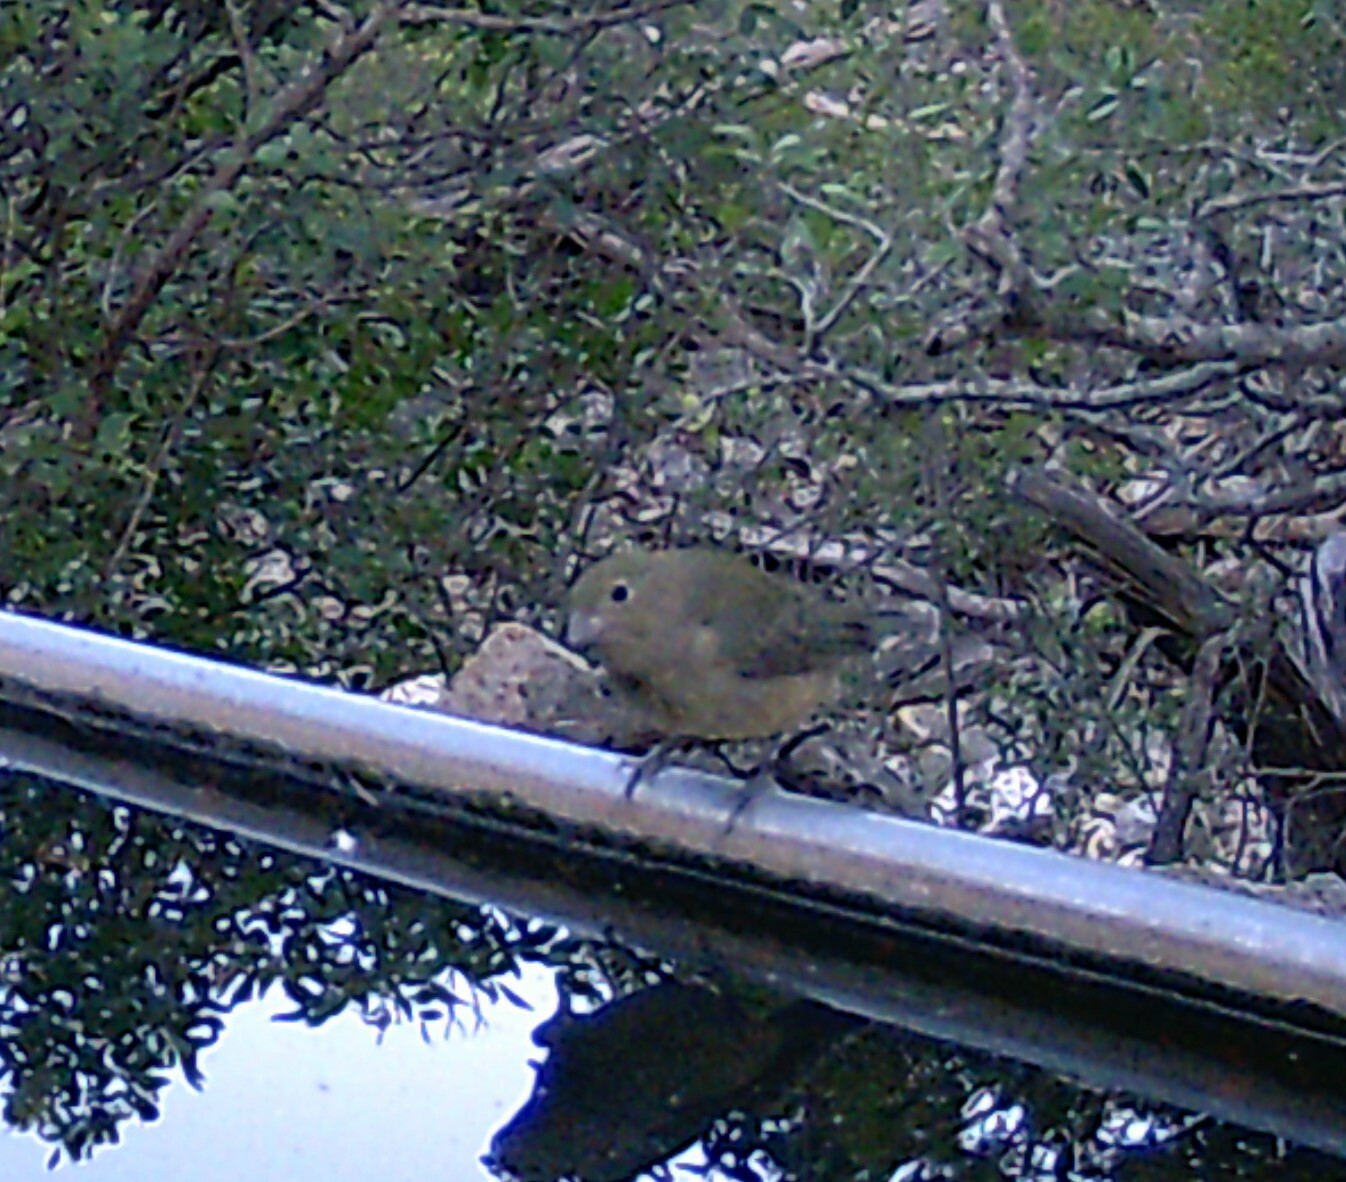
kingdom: Animalia
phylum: Chordata
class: Aves
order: Passeriformes
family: Cardinalidae
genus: Passerina
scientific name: Passerina ciris
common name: Painted bunting
